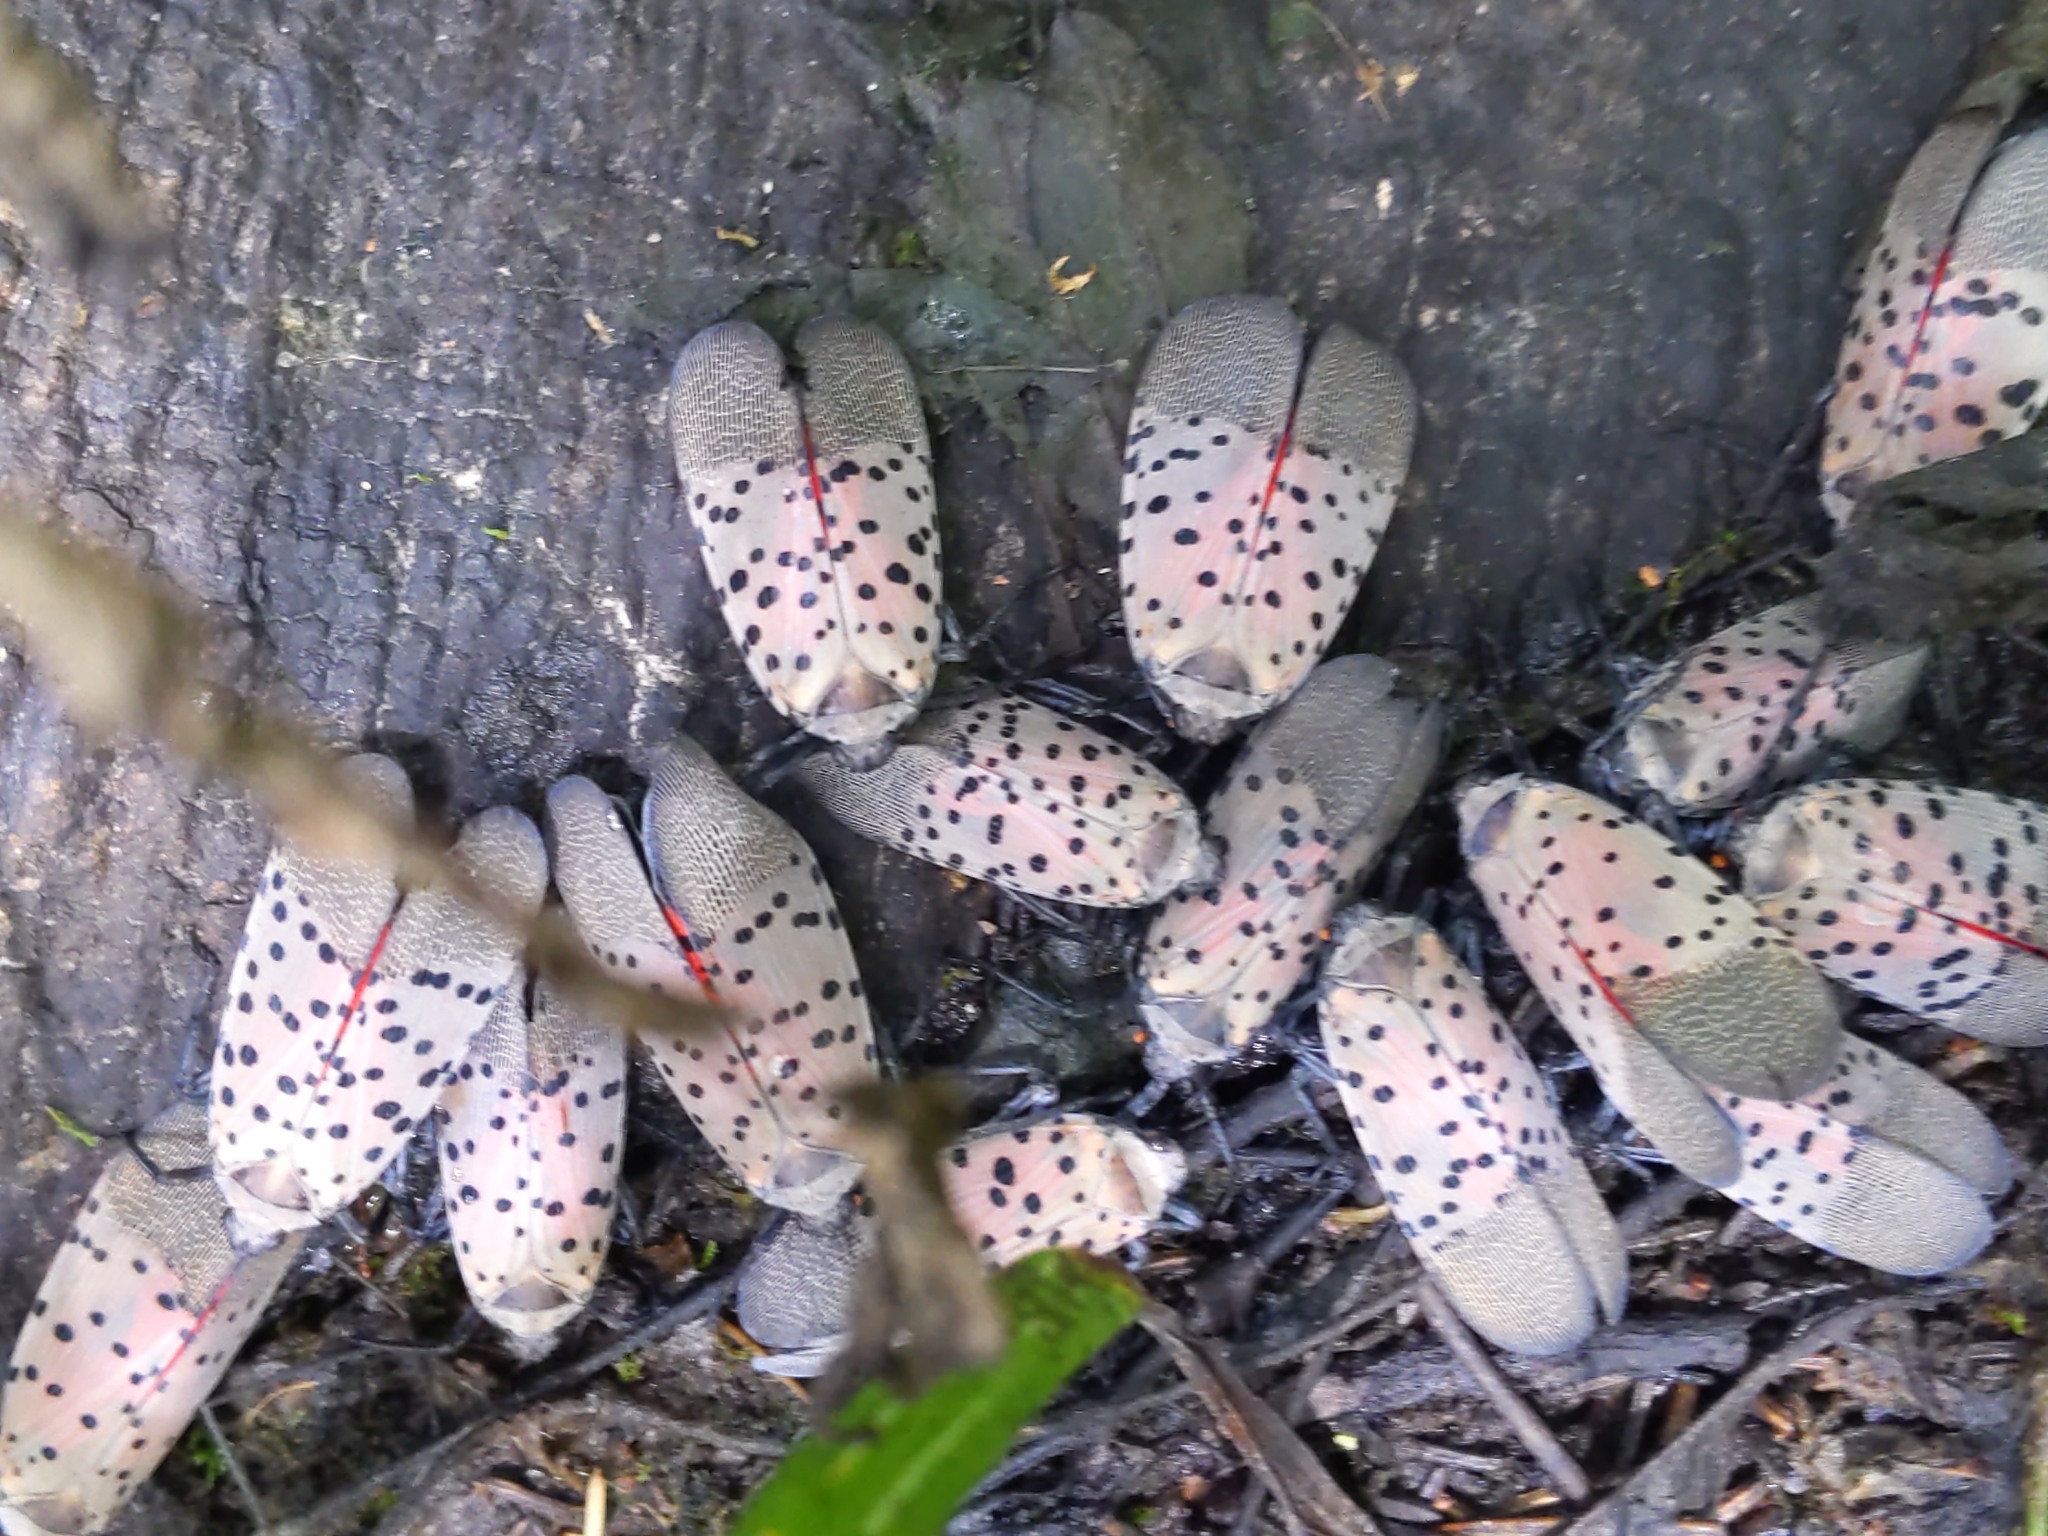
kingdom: Animalia
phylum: Arthropoda
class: Insecta
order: Hemiptera
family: Fulgoridae
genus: Lycorma
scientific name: Lycorma delicatula
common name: Spotted lanternfly
